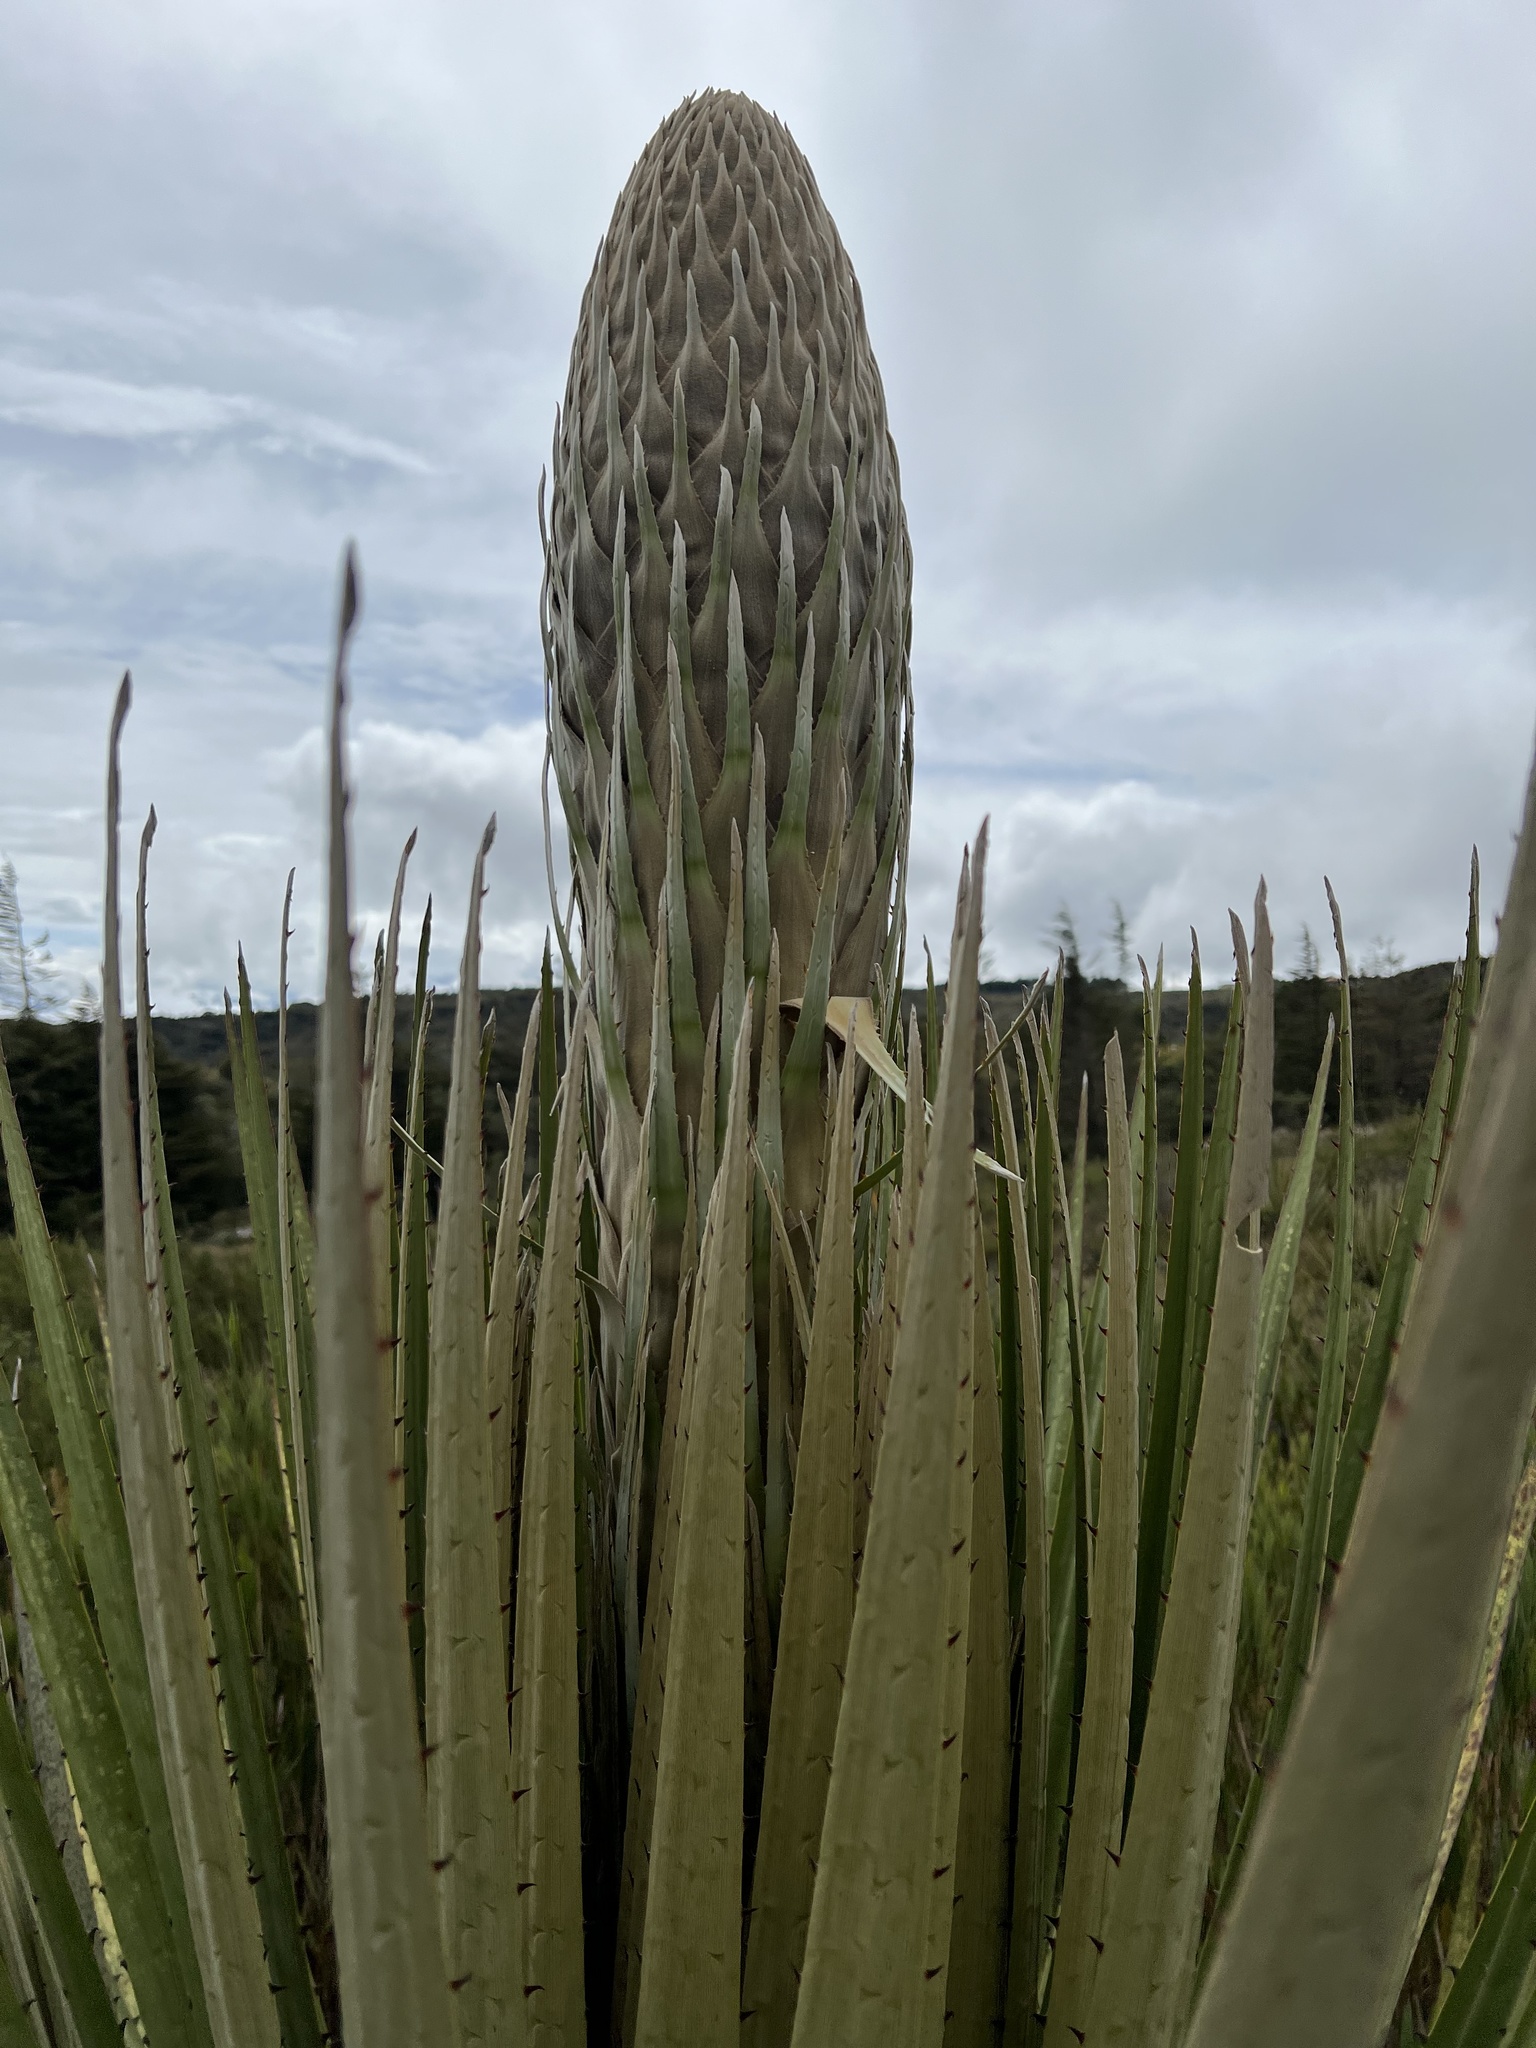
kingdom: Plantae
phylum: Tracheophyta
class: Liliopsida
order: Poales
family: Bromeliaceae
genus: Puya
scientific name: Puya goudotiana
